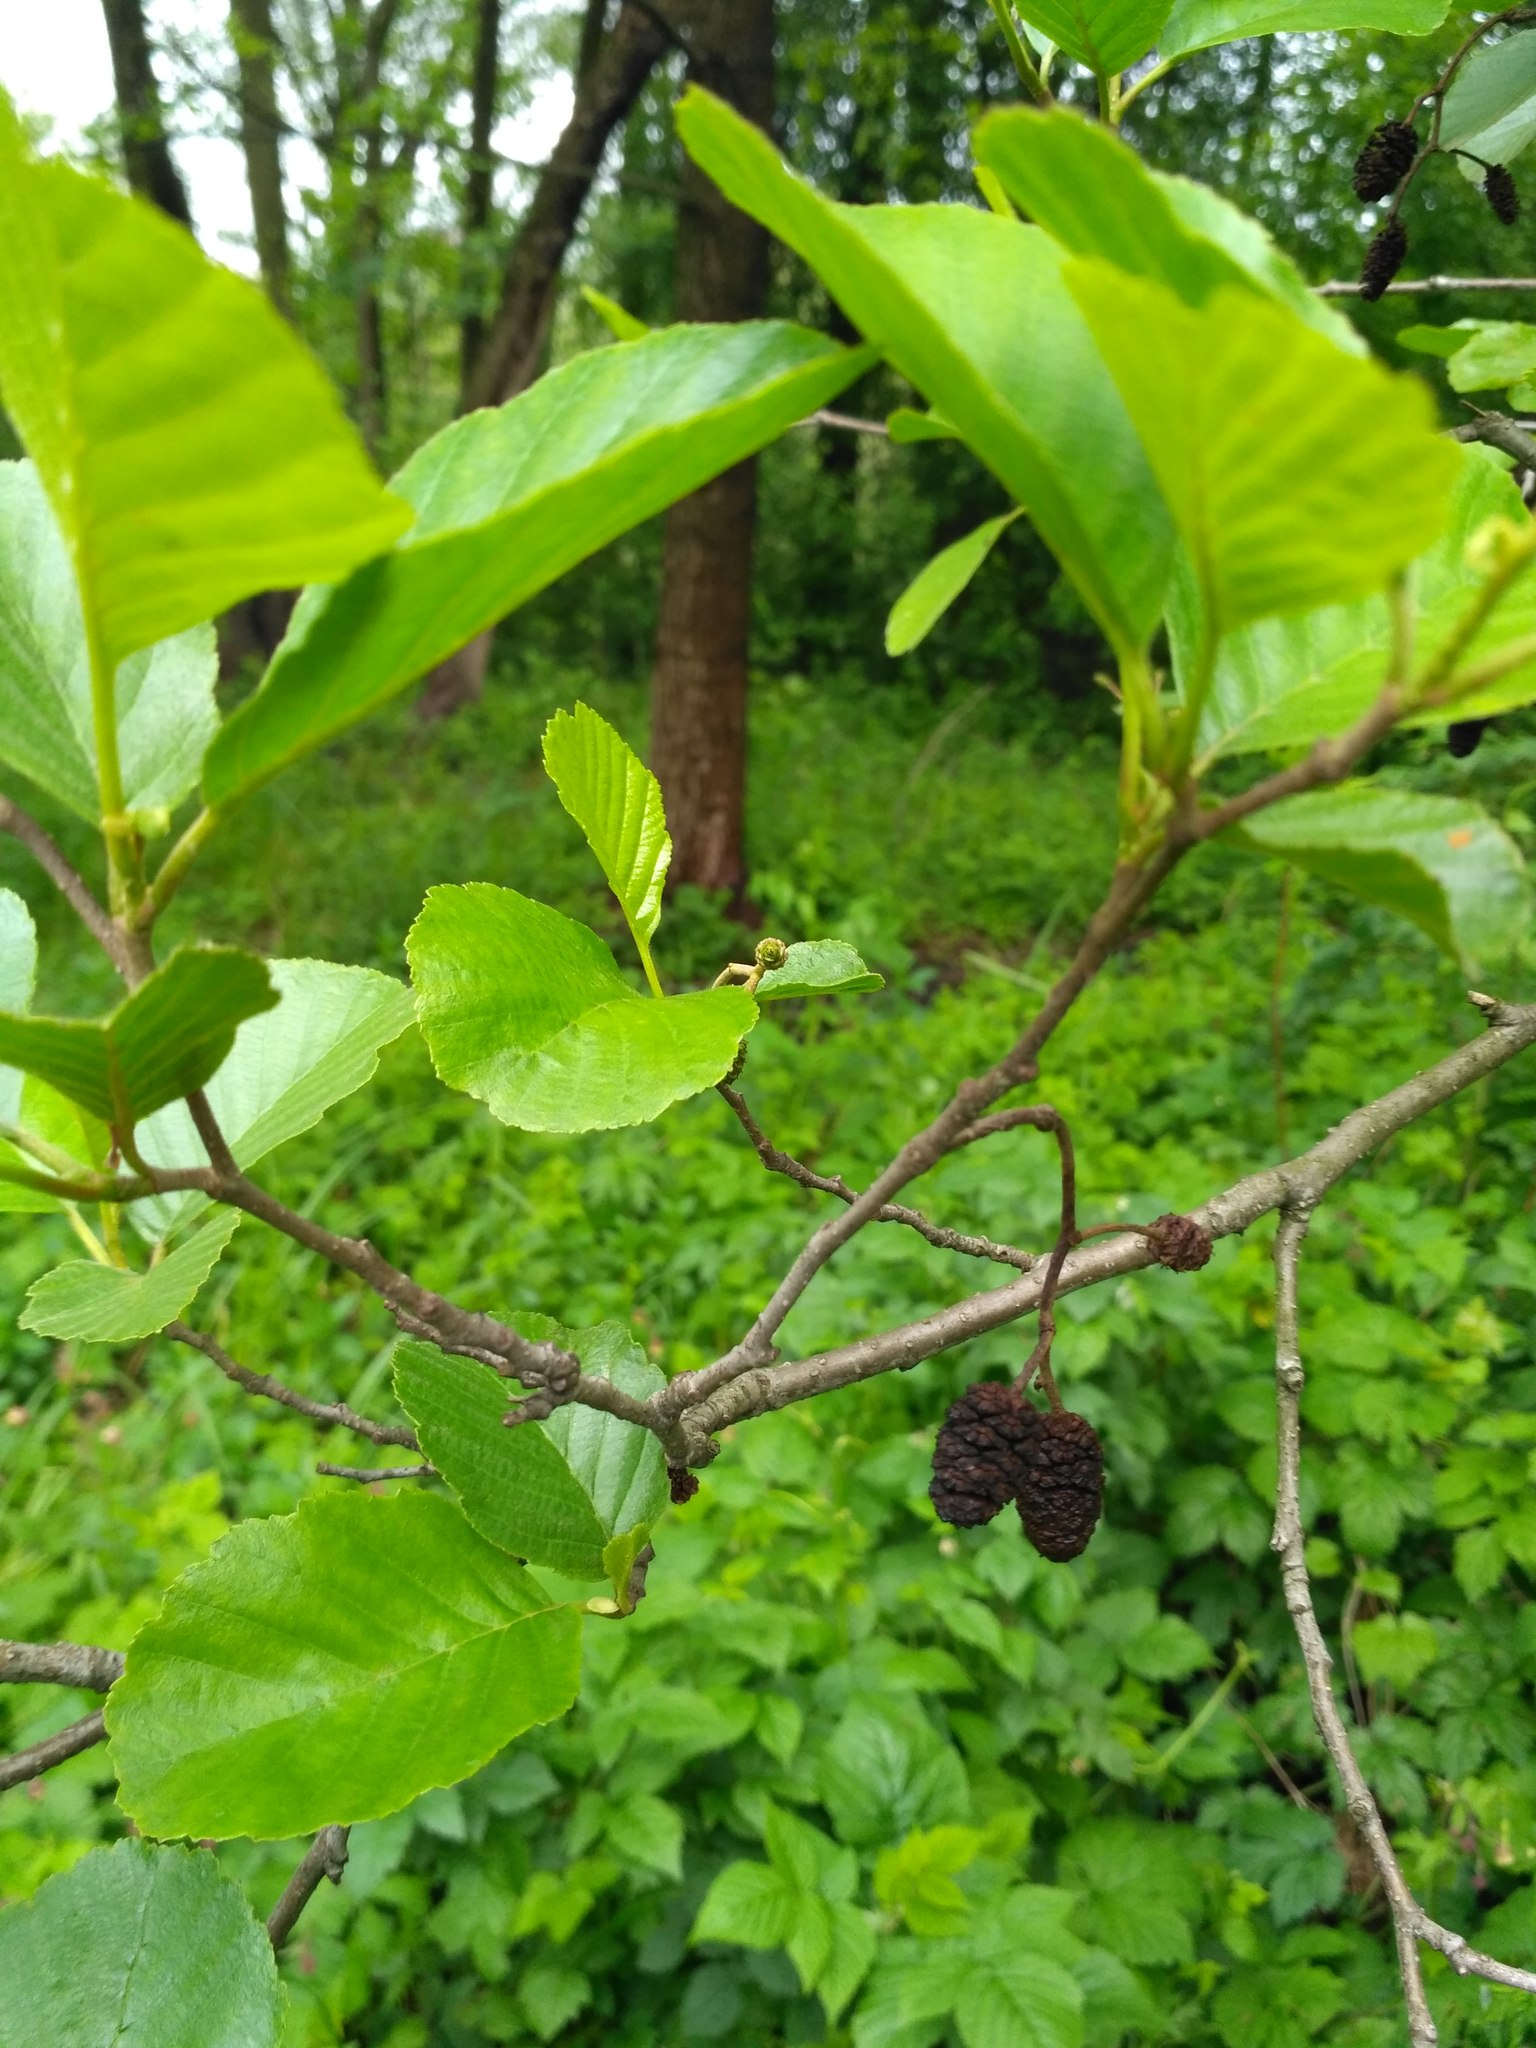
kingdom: Plantae
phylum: Tracheophyta
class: Magnoliopsida
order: Fagales
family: Betulaceae
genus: Alnus
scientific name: Alnus glutinosa
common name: Black alder
